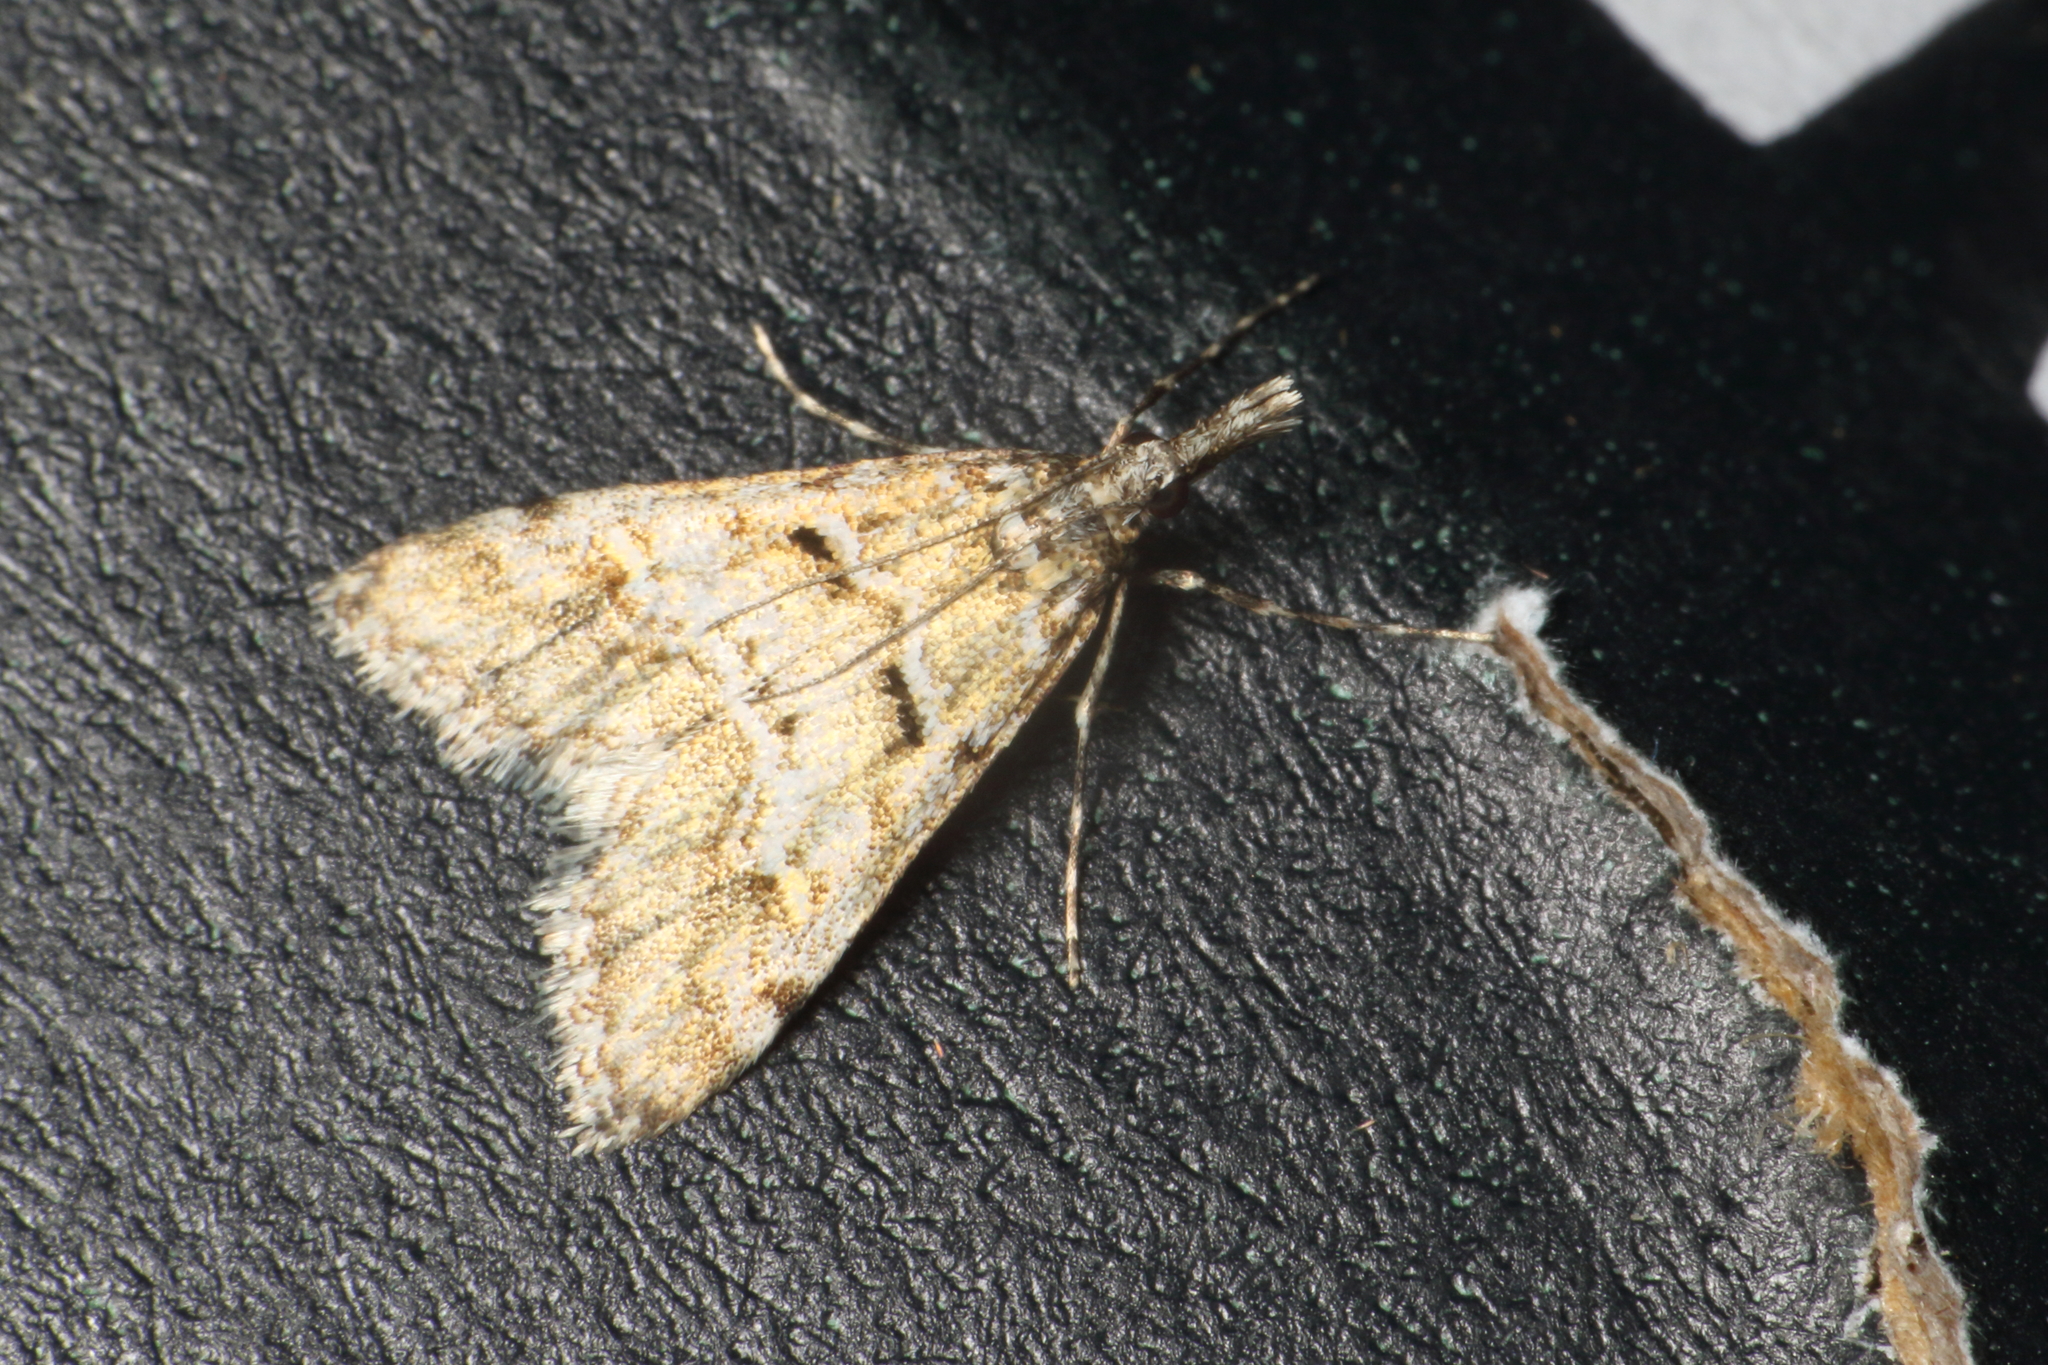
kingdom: Animalia
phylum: Arthropoda
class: Insecta
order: Lepidoptera
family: Crambidae
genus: Culladia
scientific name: Culladia strophaea
